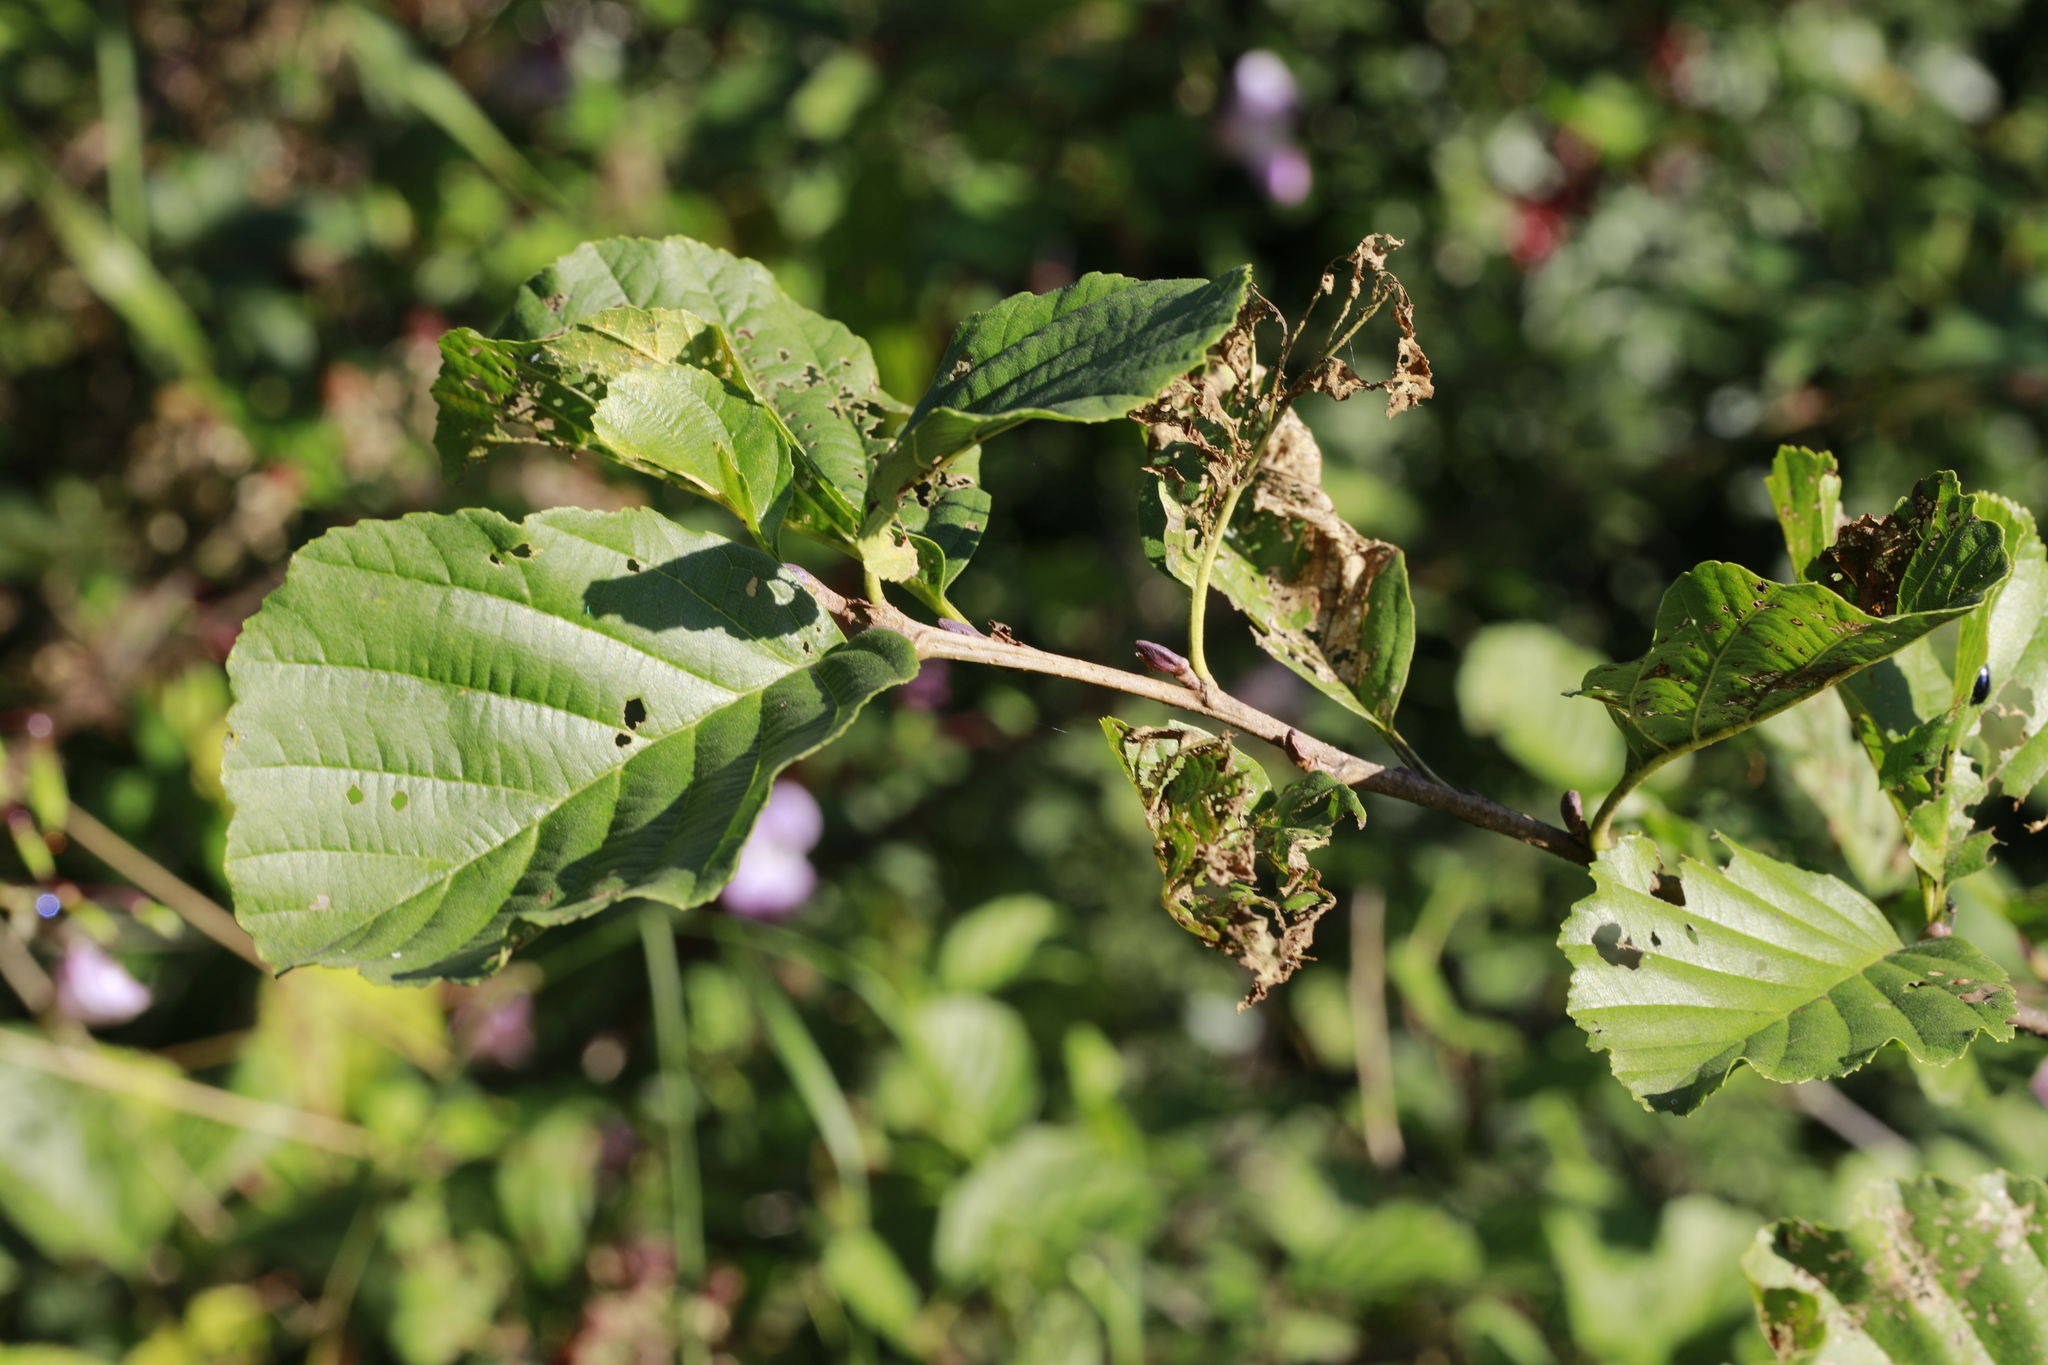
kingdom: Plantae
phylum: Tracheophyta
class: Magnoliopsida
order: Fagales
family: Betulaceae
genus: Alnus
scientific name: Alnus glutinosa
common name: Black alder
